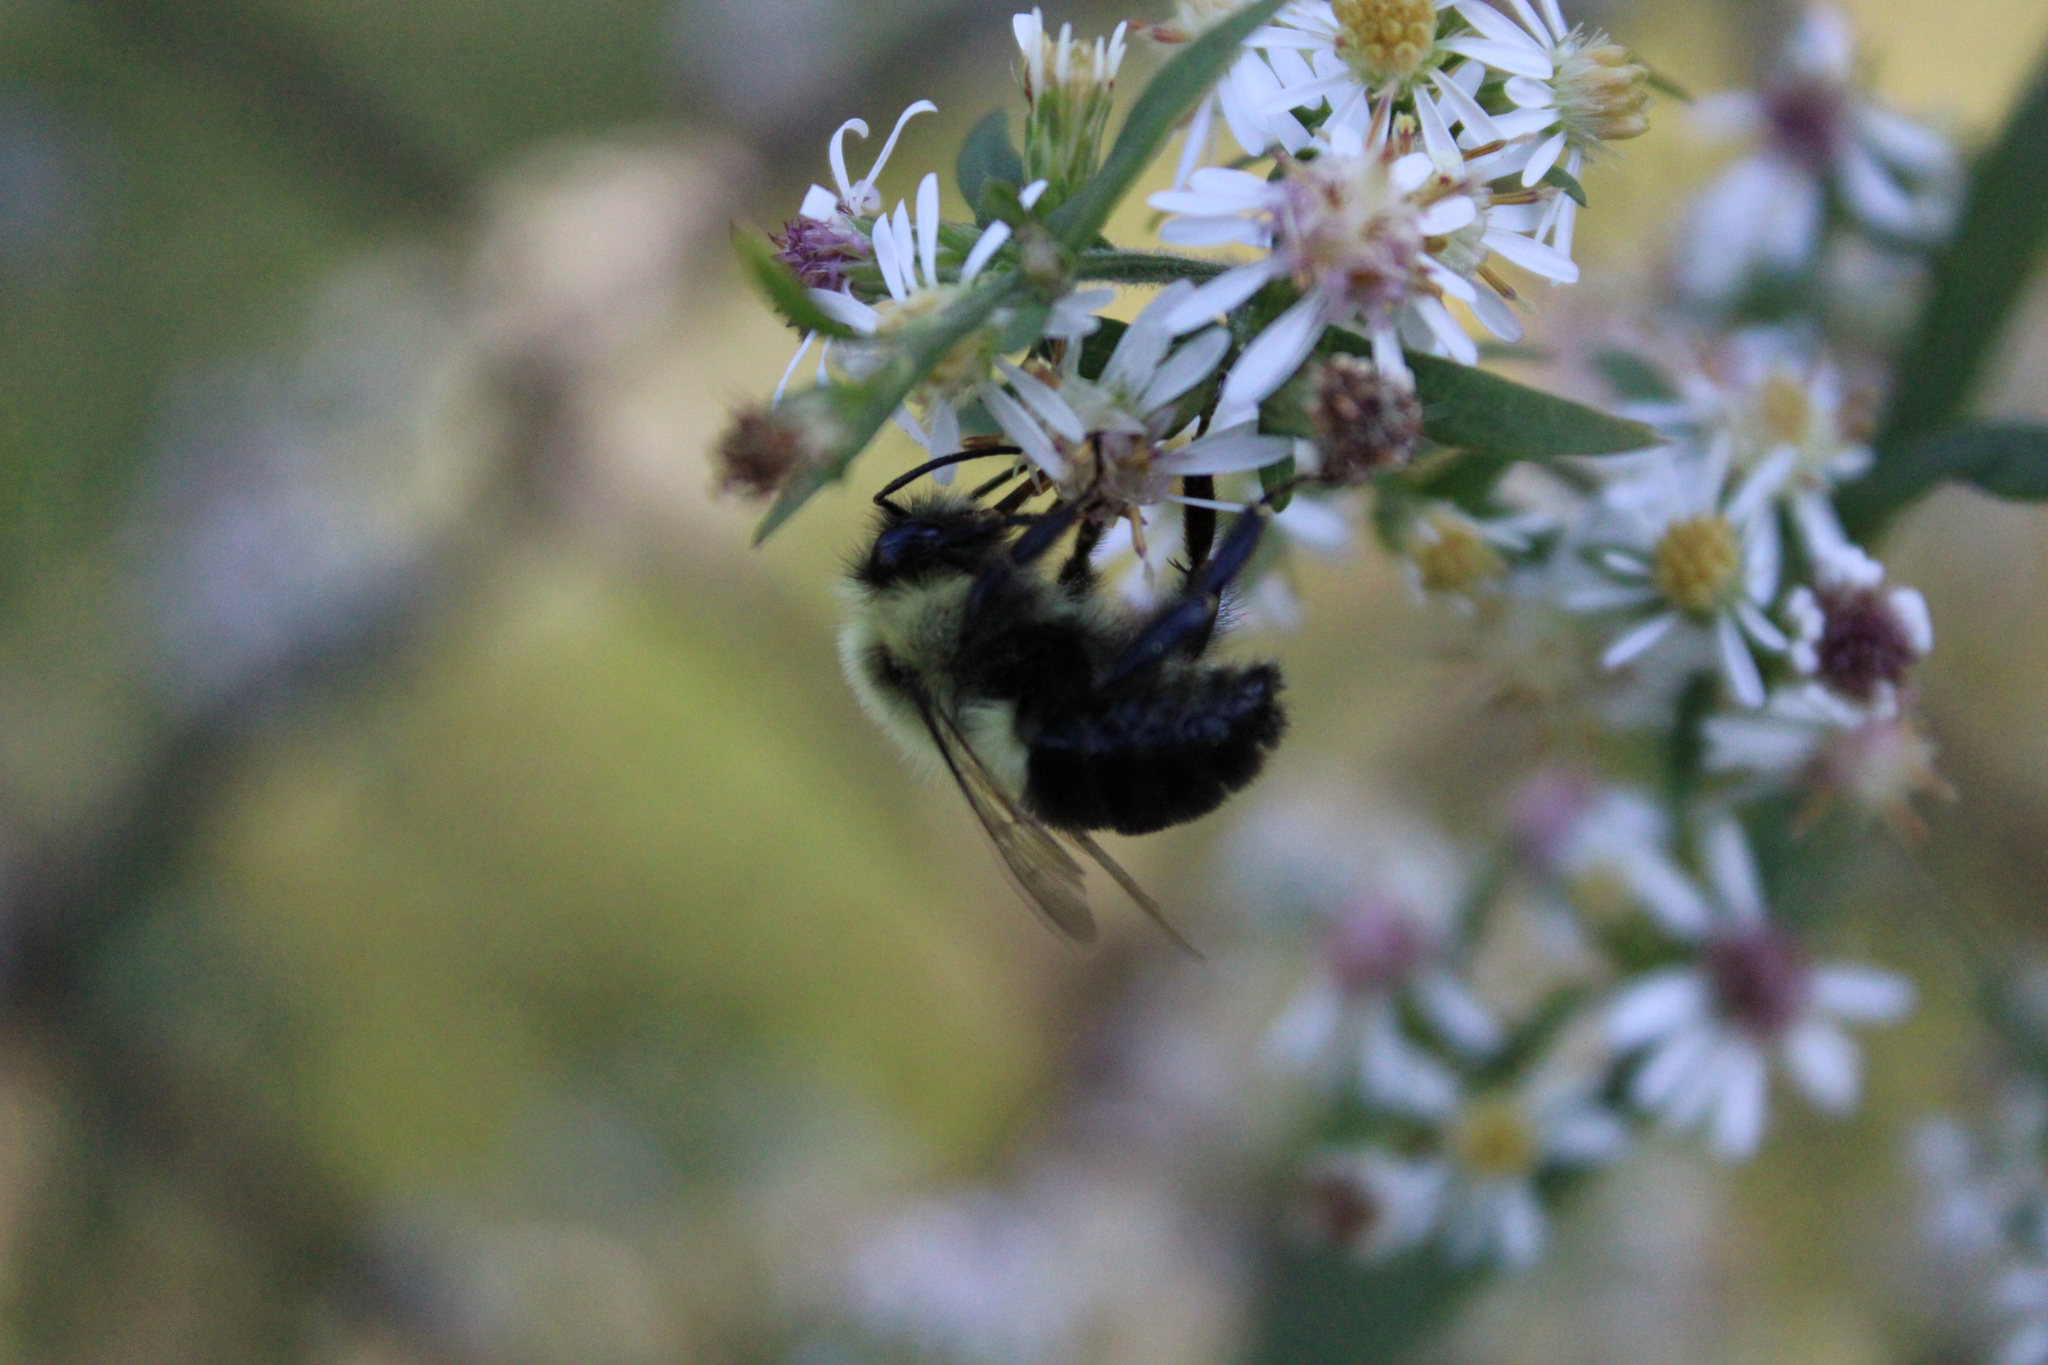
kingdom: Animalia
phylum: Arthropoda
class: Insecta
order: Hymenoptera
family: Apidae
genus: Bombus
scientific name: Bombus impatiens
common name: Common eastern bumble bee
